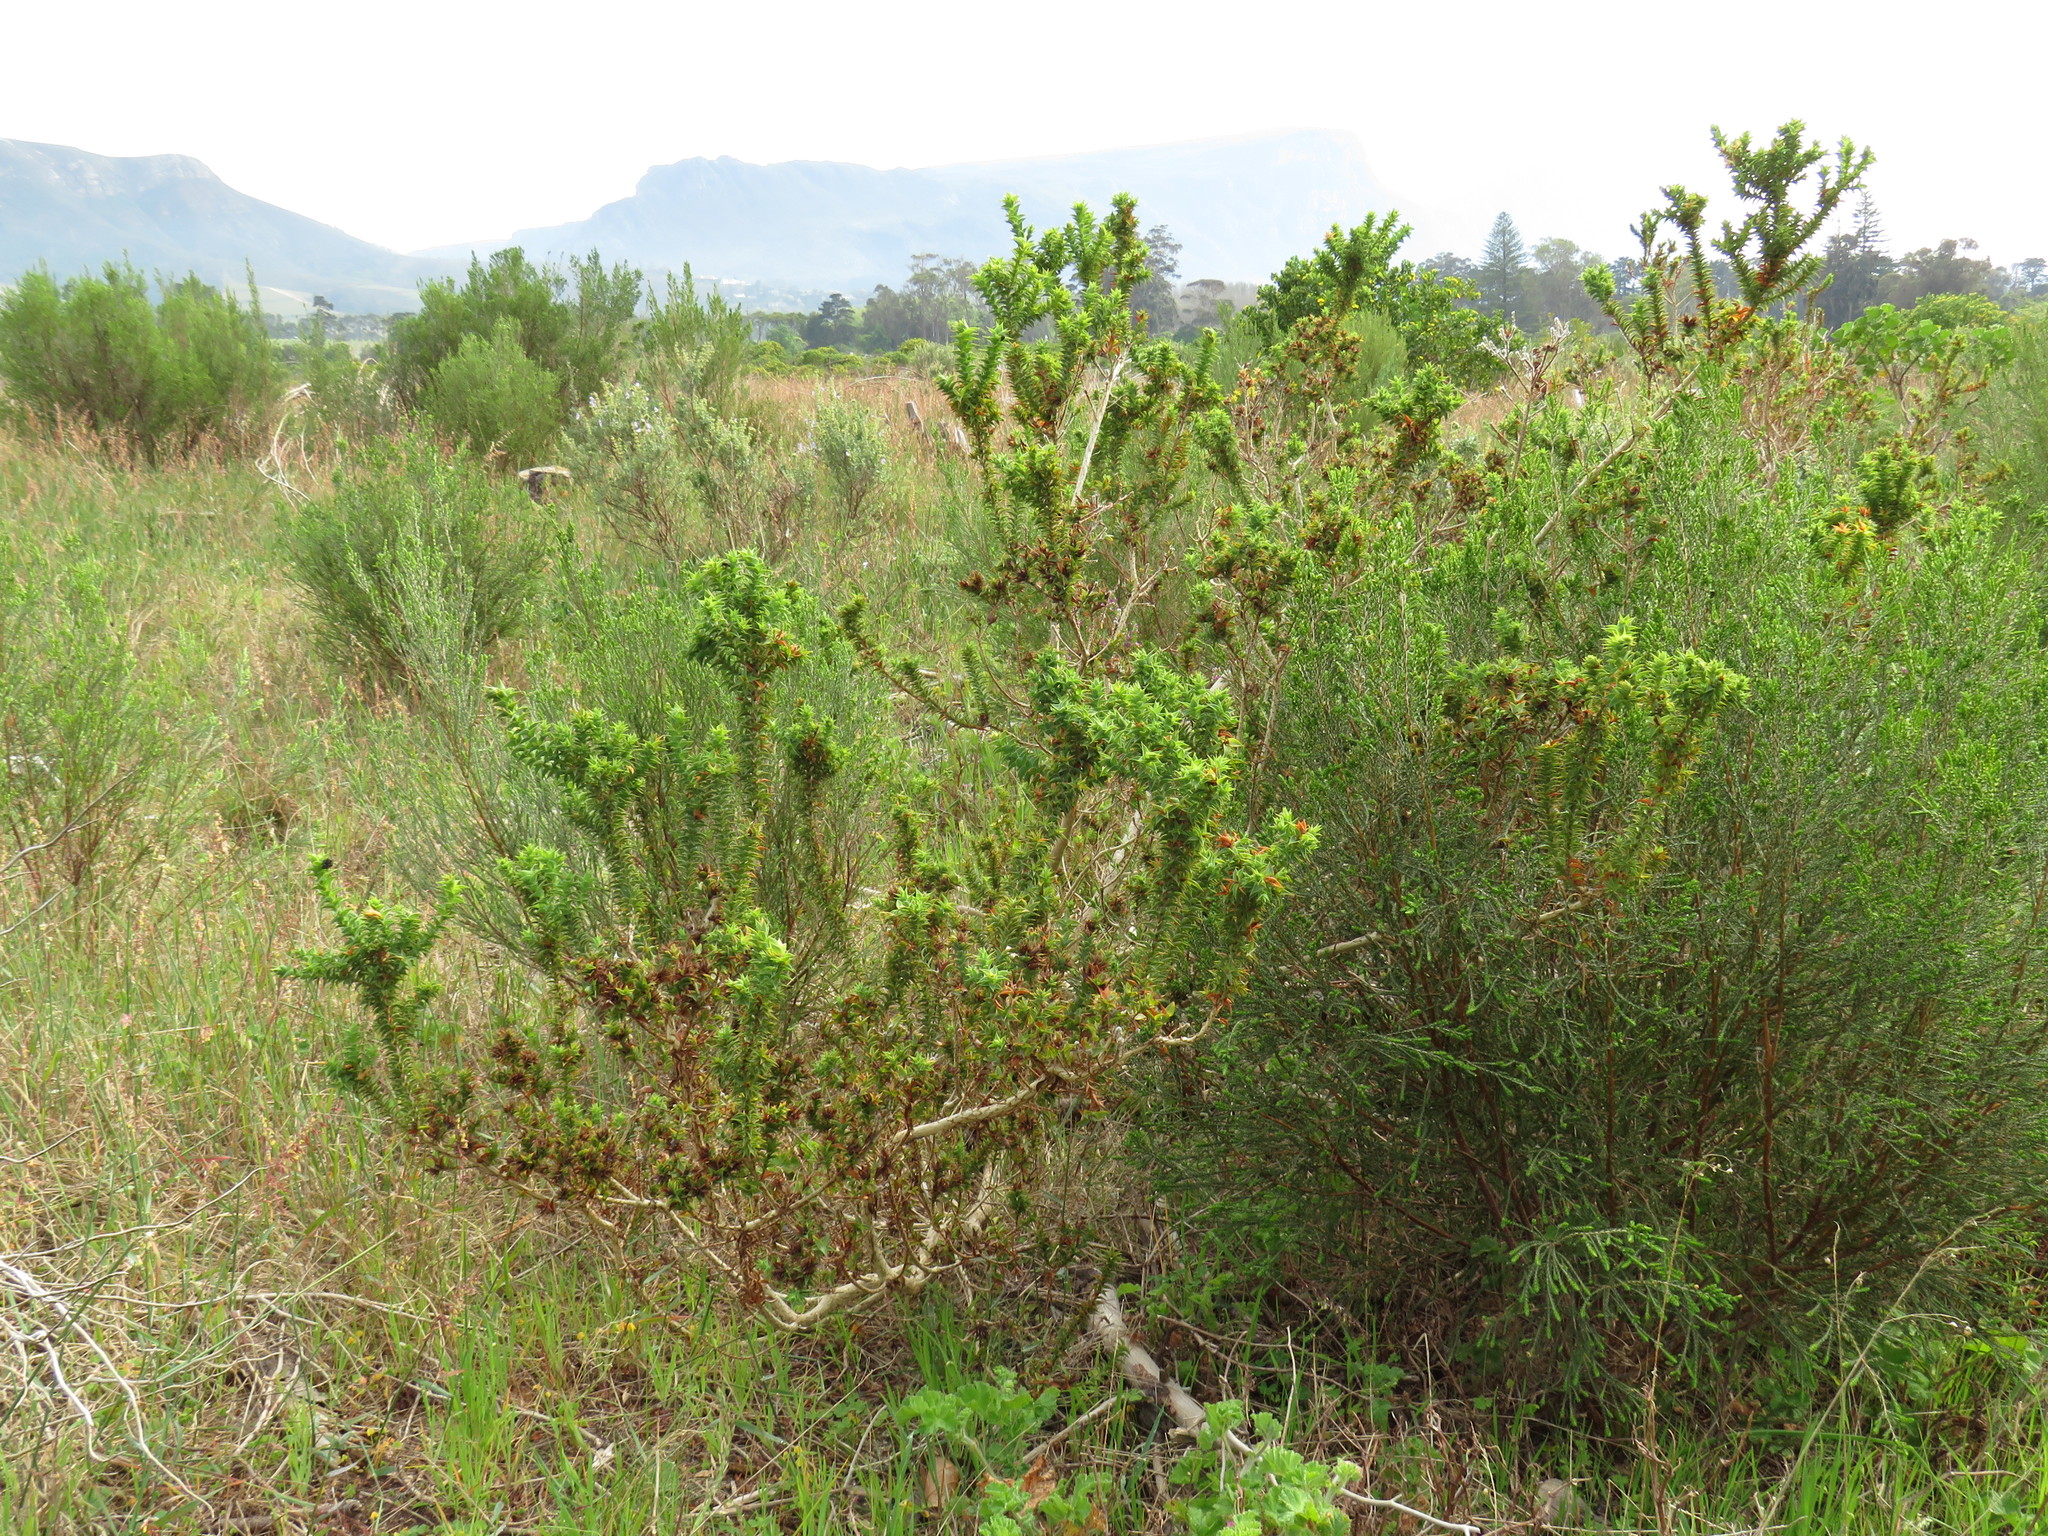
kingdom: Plantae
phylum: Tracheophyta
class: Magnoliopsida
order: Fabales
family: Fabaceae
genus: Aspalathus
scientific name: Aspalathus cordata
